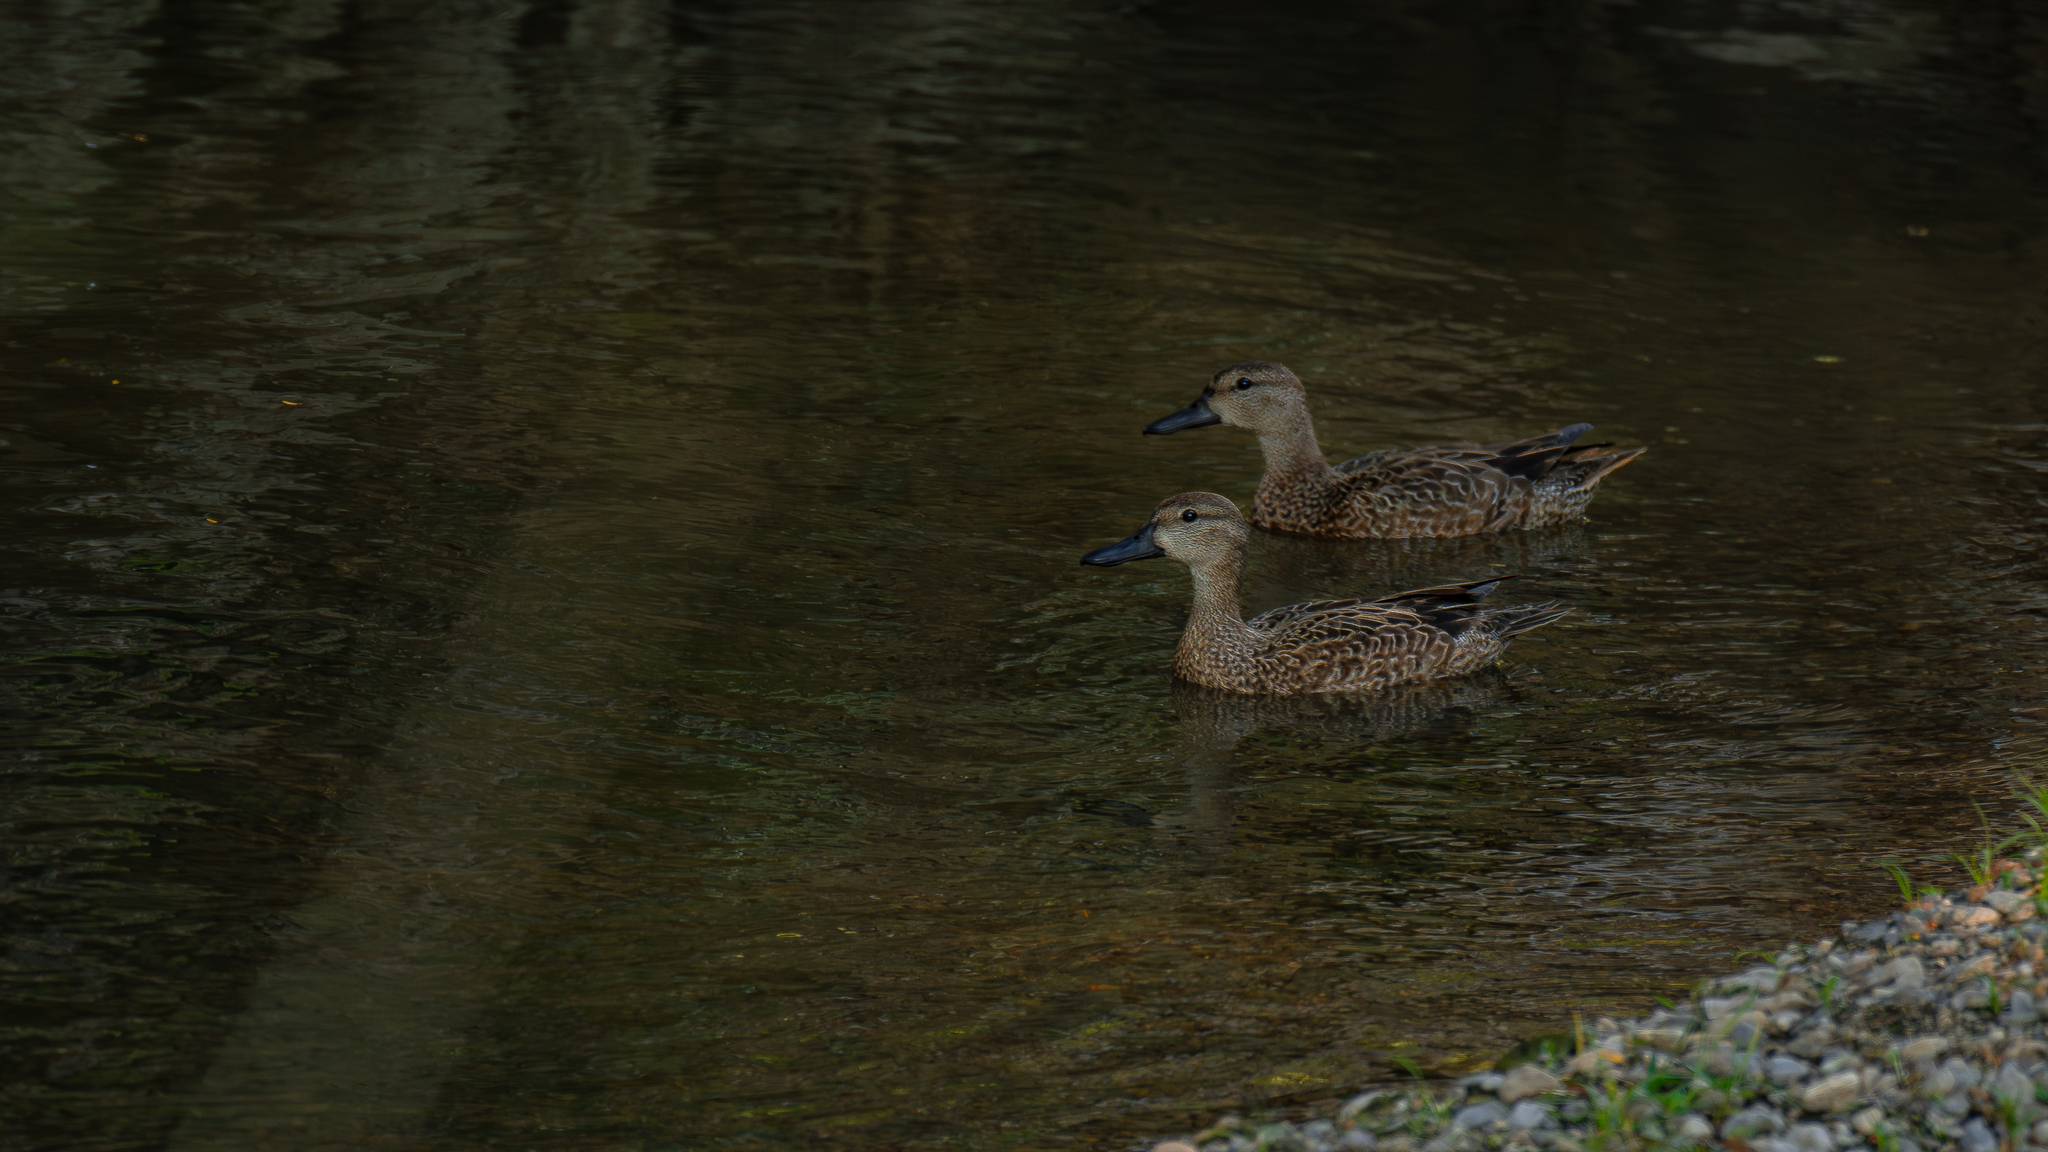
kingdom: Animalia
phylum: Chordata
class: Aves
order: Anseriformes
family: Anatidae
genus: Spatula
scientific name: Spatula discors
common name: Blue-winged teal
